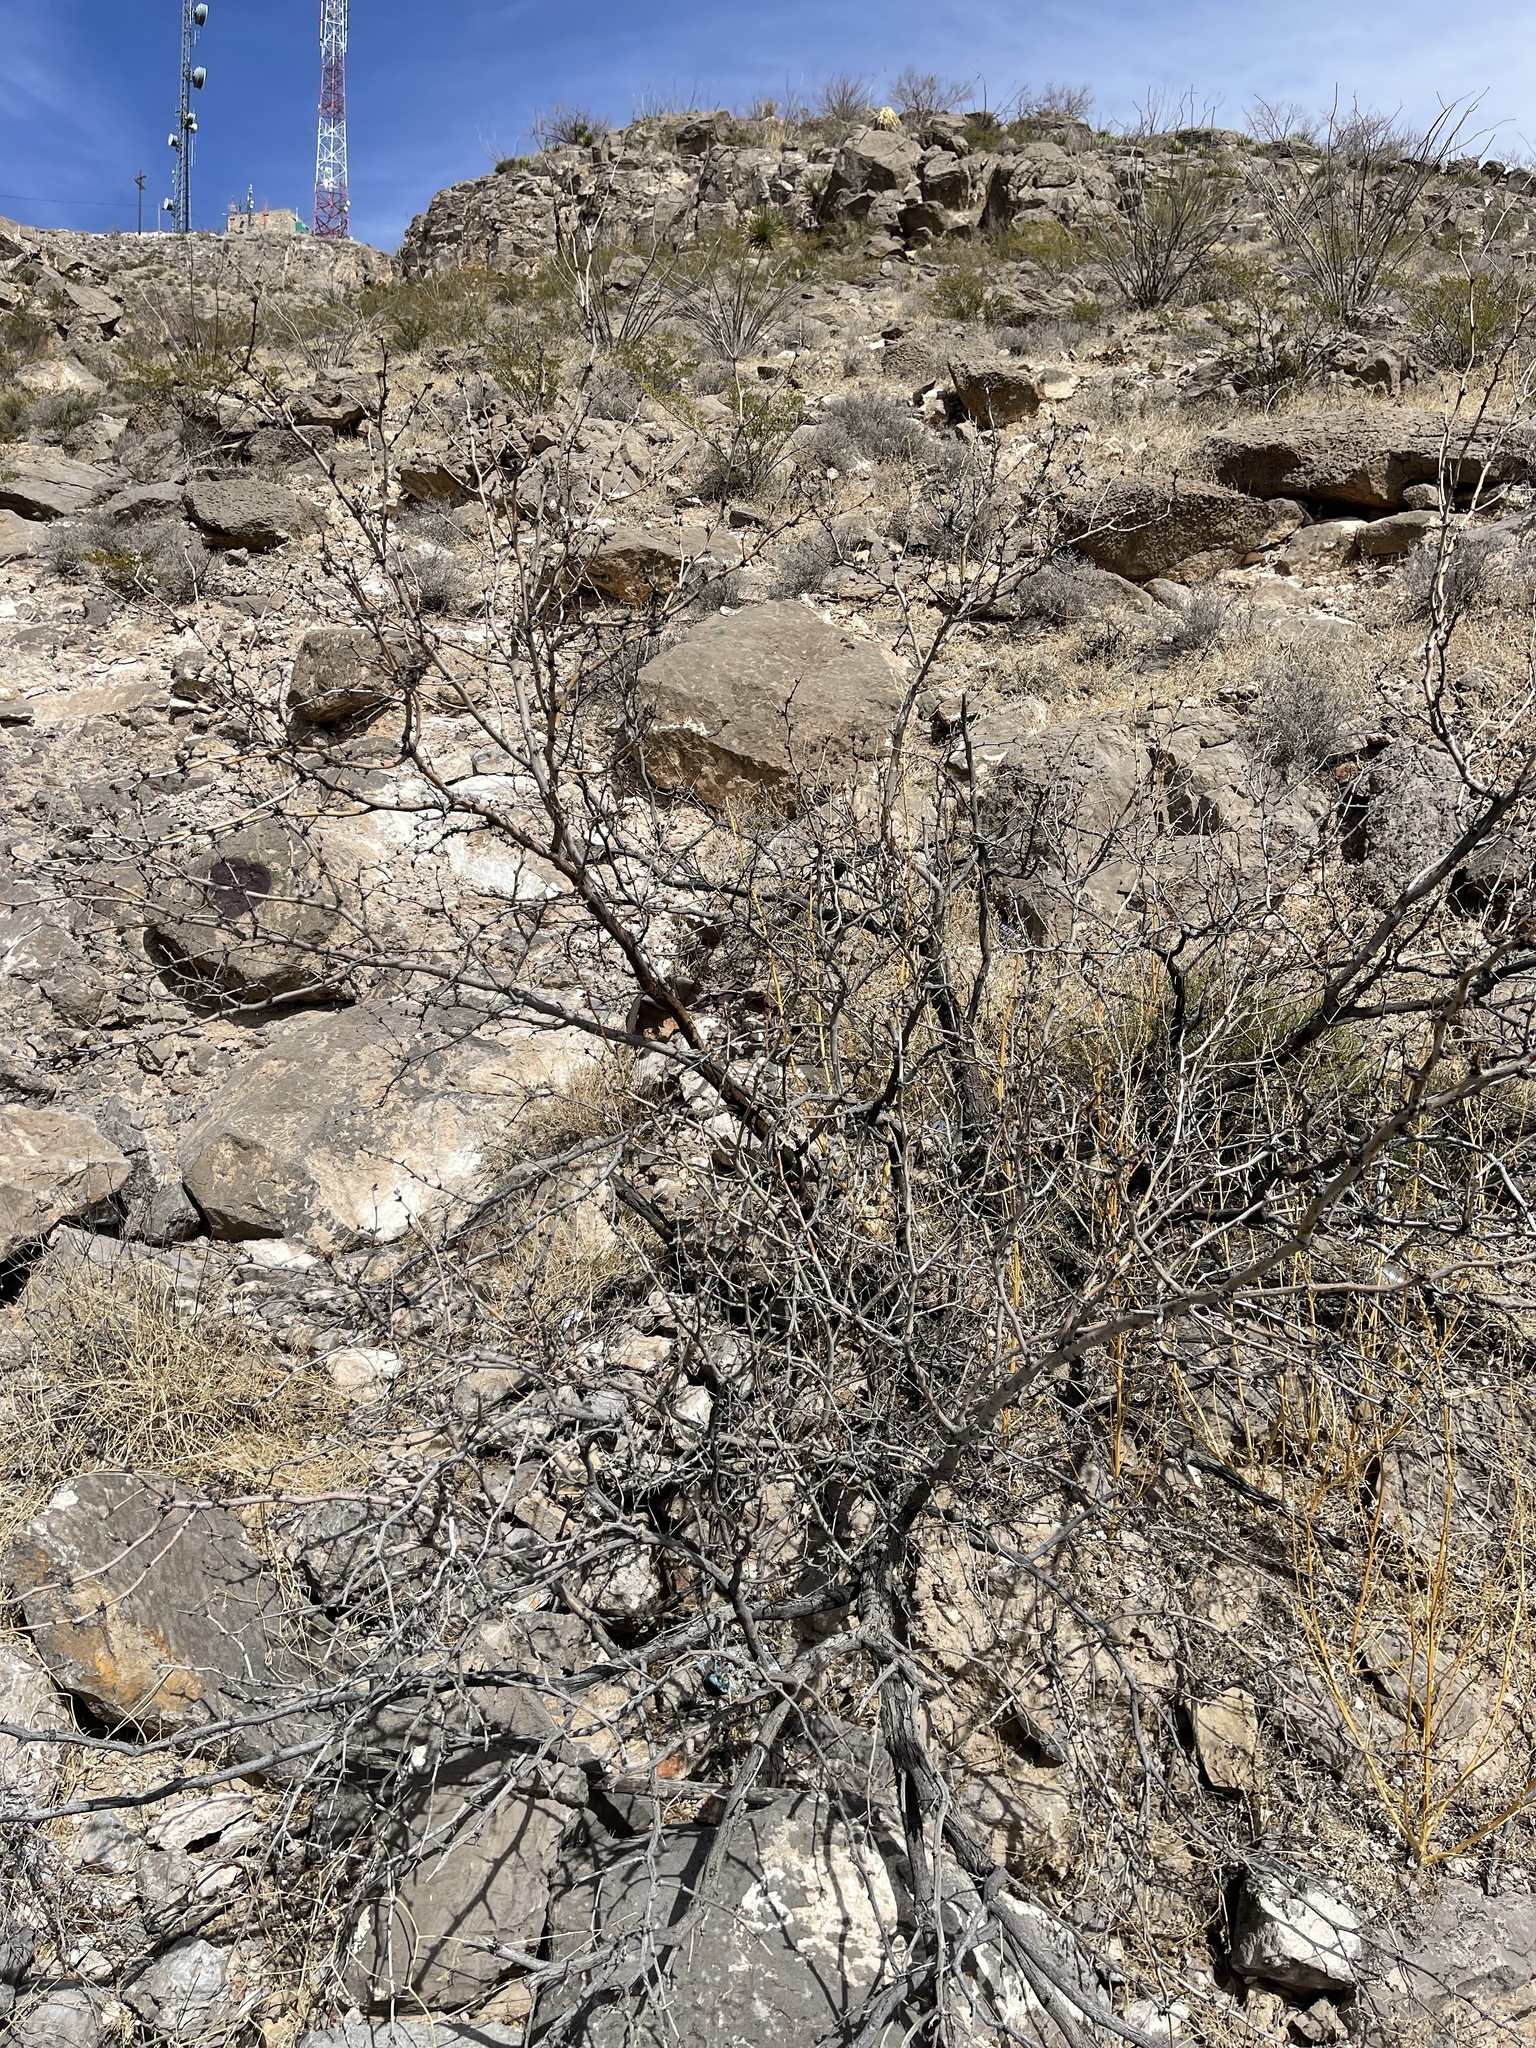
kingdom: Plantae
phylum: Tracheophyta
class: Magnoliopsida
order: Fabales
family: Fabaceae
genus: Prosopis
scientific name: Prosopis glandulosa
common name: Honey mesquite
